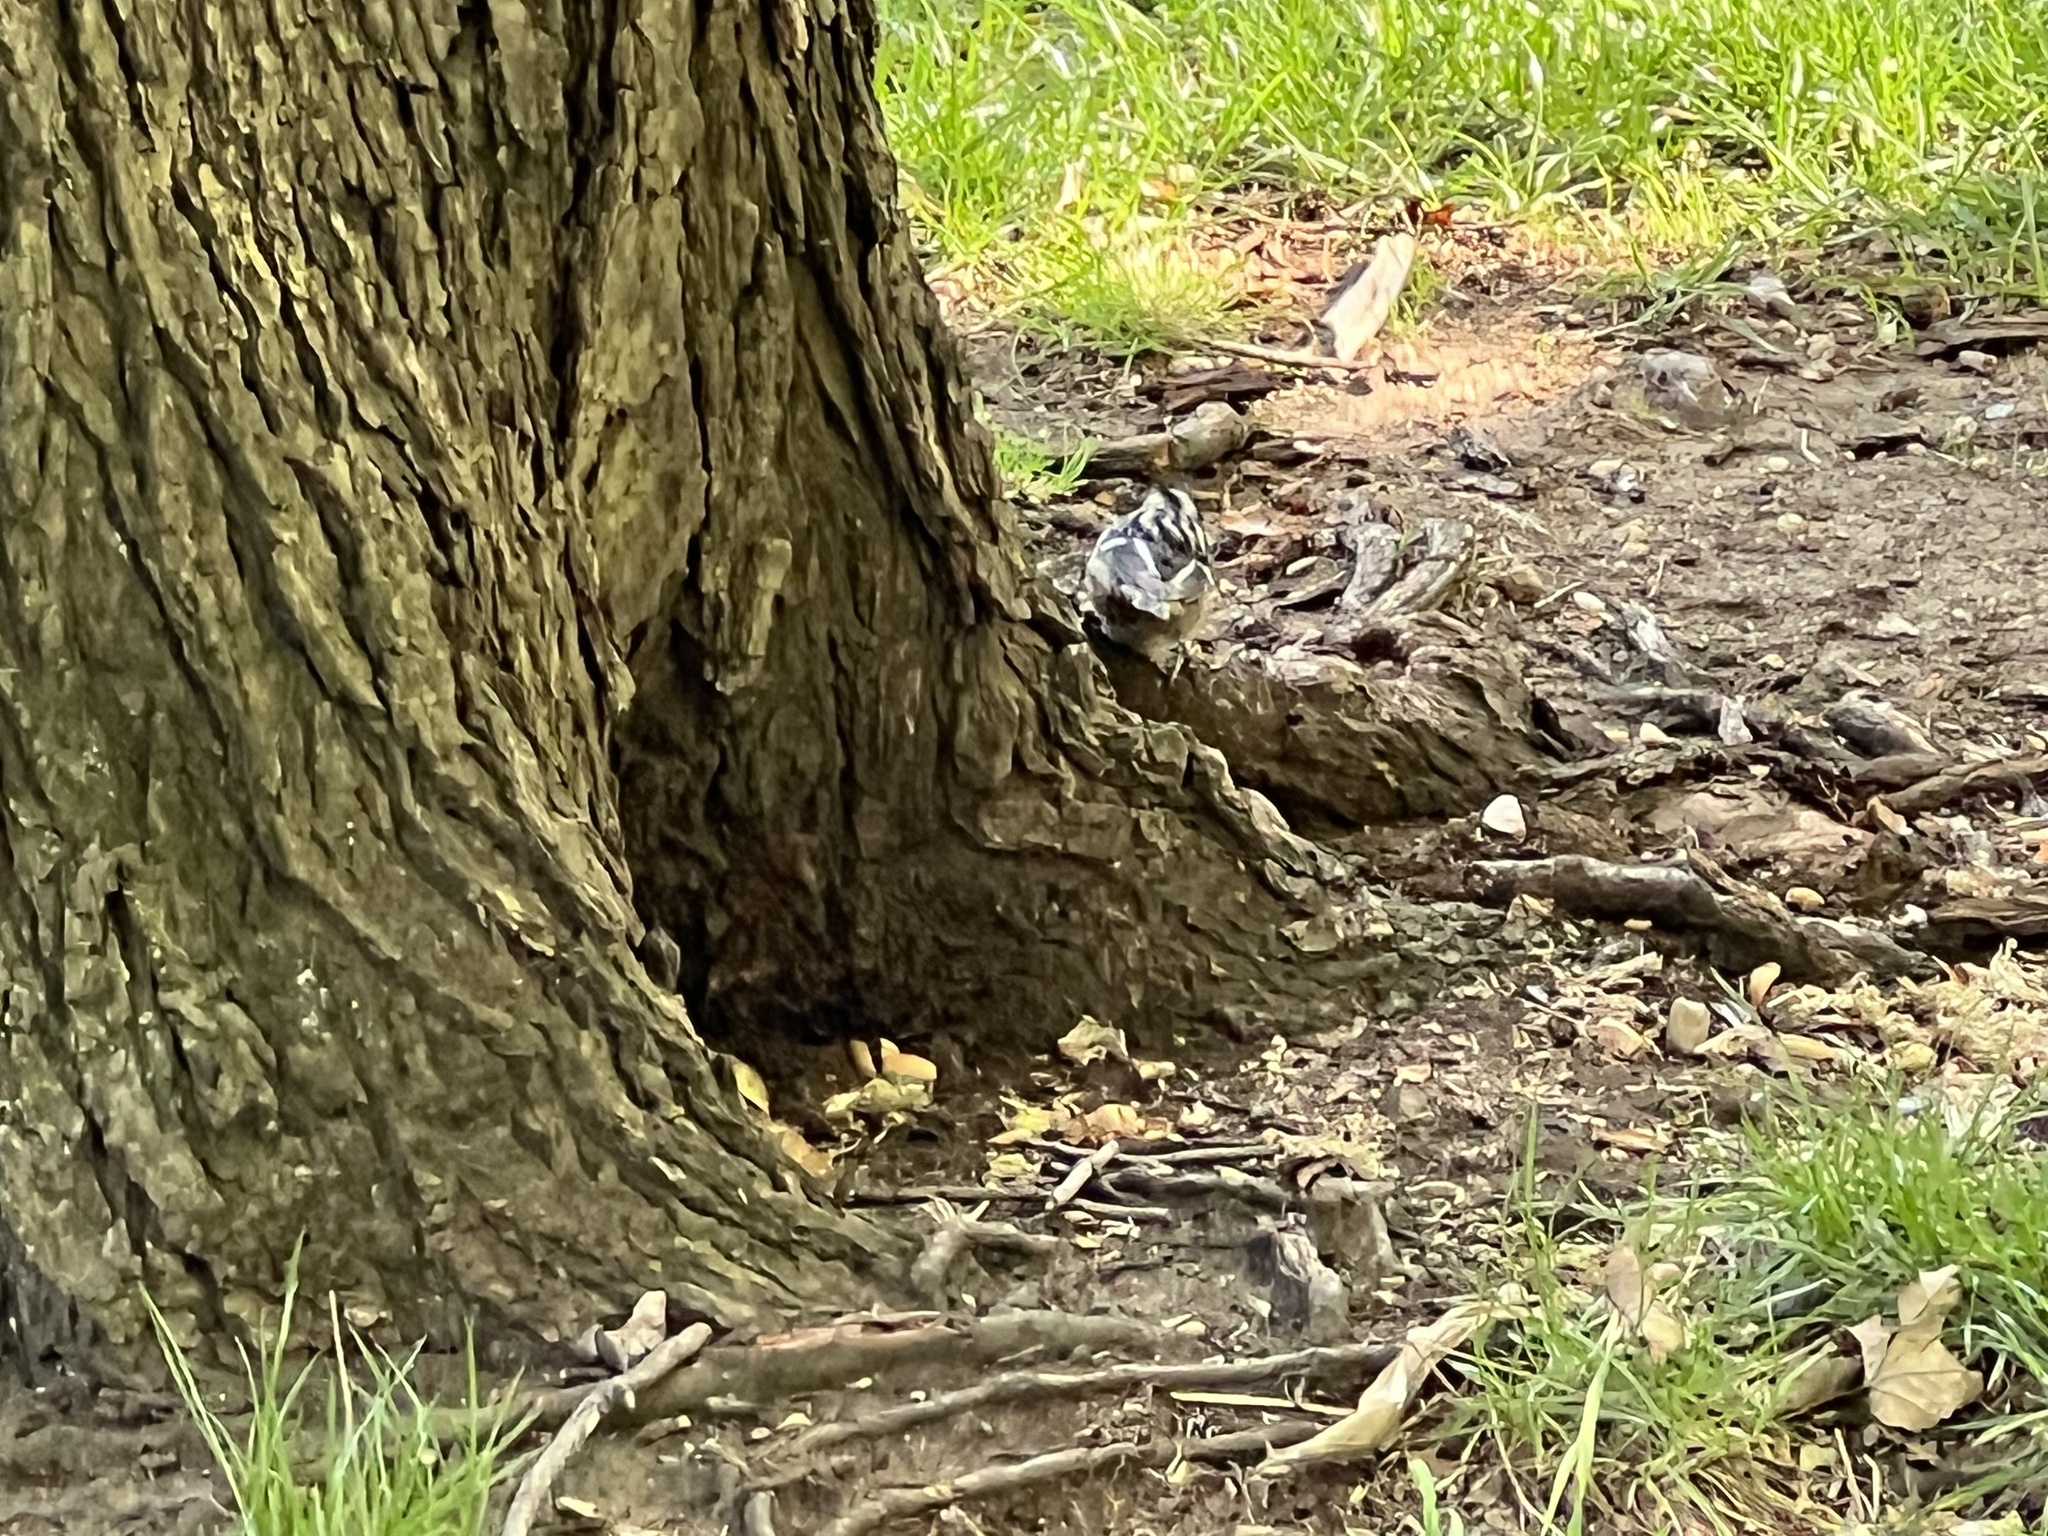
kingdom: Animalia
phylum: Chordata
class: Aves
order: Passeriformes
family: Parulidae
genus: Mniotilta
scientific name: Mniotilta varia
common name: Black-and-white warbler
